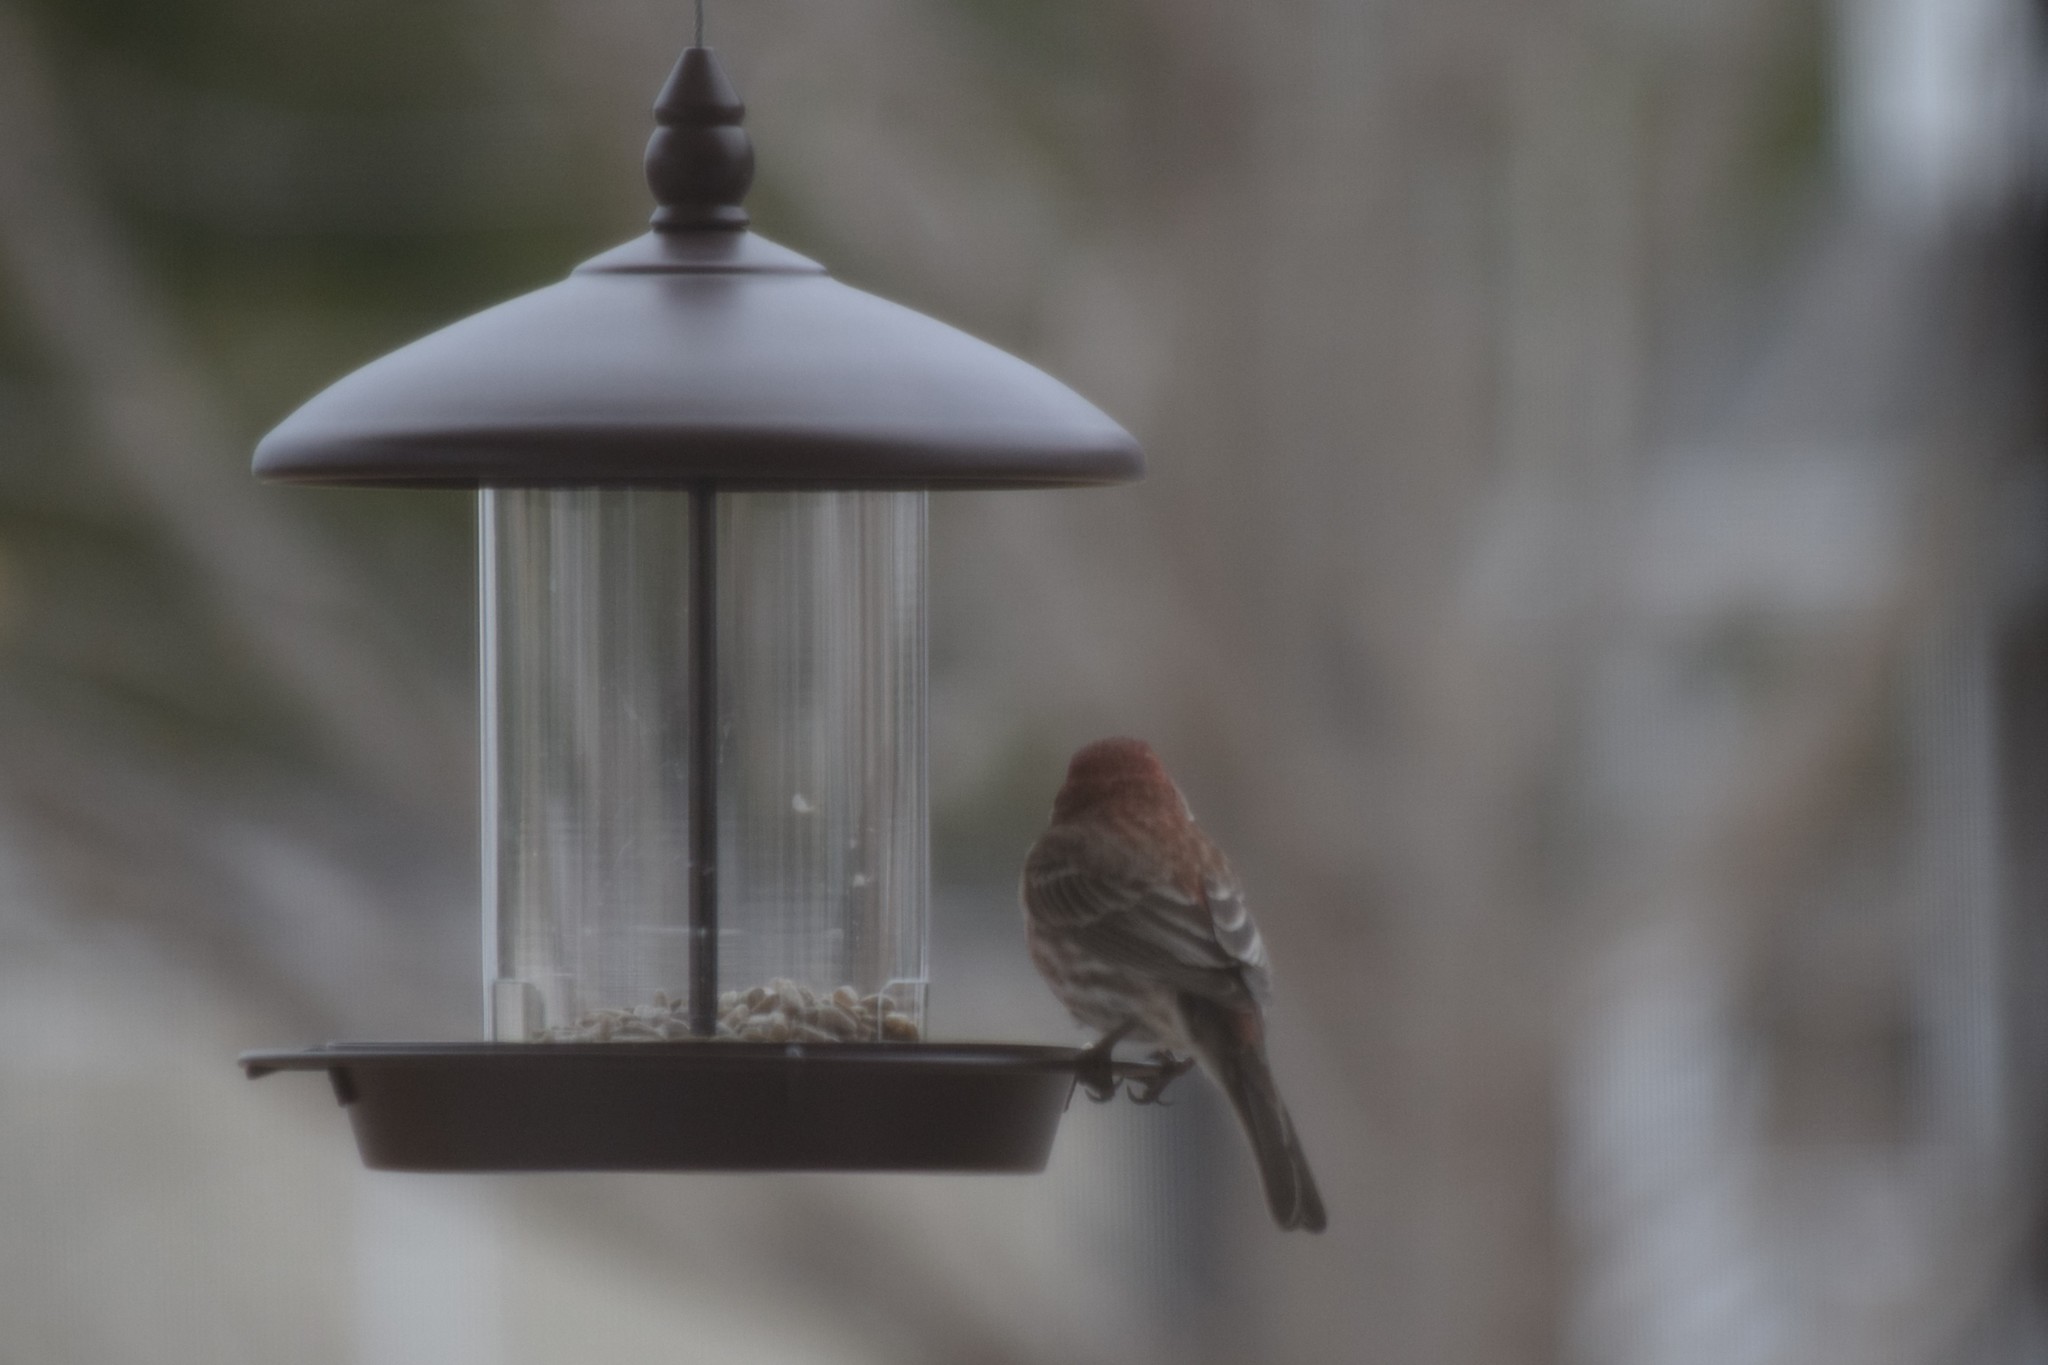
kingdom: Animalia
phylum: Chordata
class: Aves
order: Passeriformes
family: Fringillidae
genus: Haemorhous
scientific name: Haemorhous mexicanus
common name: House finch
